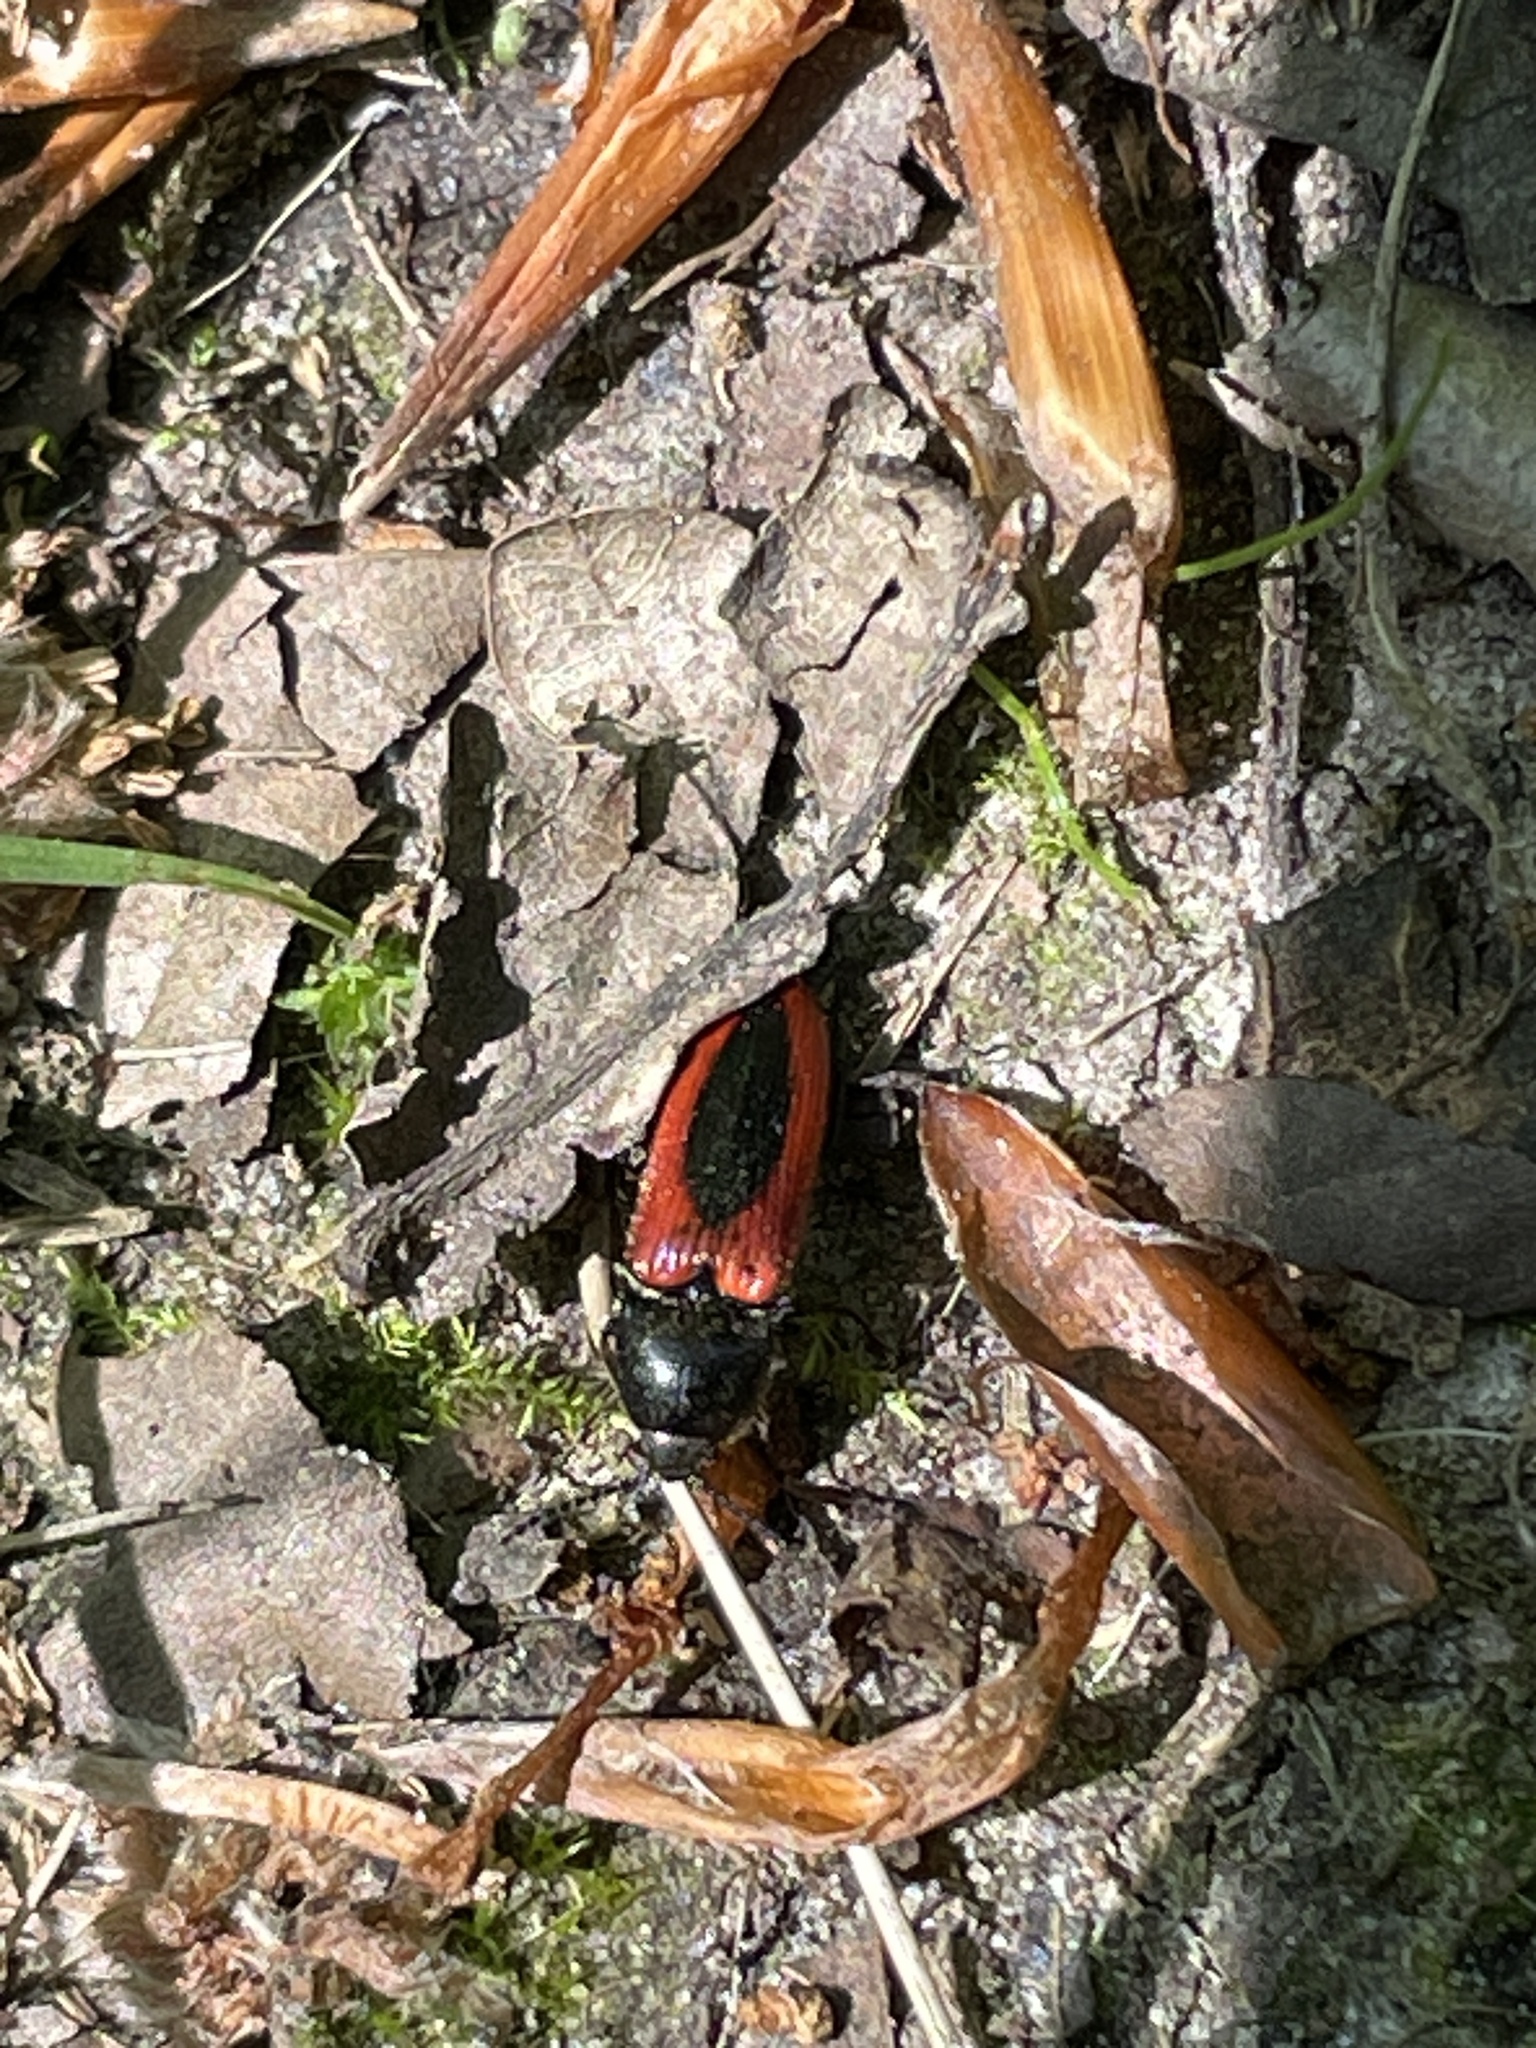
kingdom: Animalia
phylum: Arthropoda
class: Insecta
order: Coleoptera
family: Elateridae
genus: Ampedus
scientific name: Ampedus sanguinolentus
